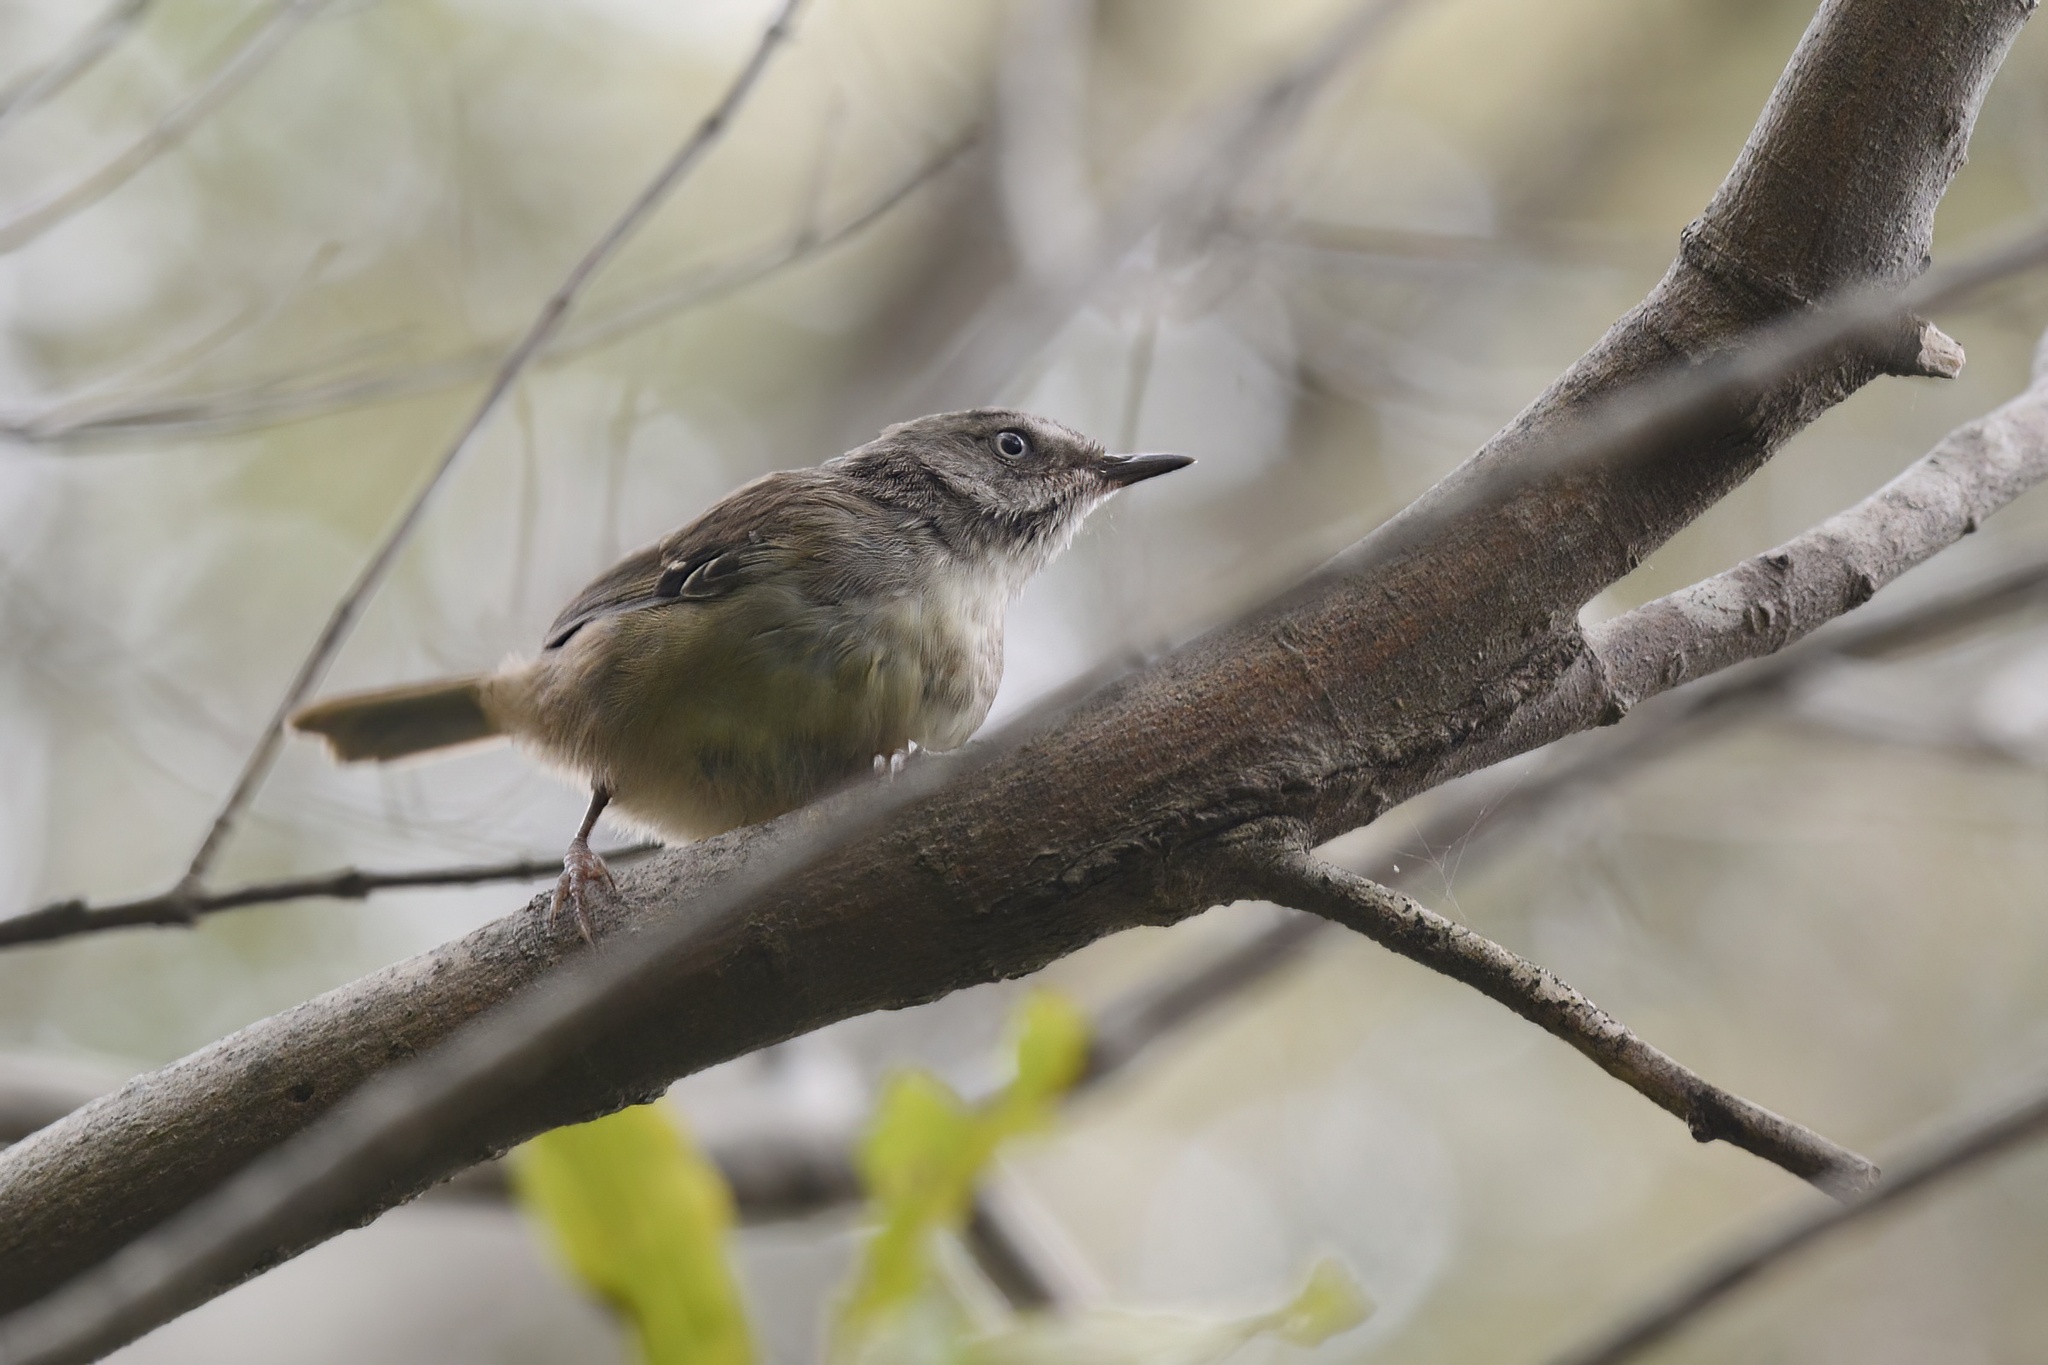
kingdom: Animalia
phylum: Chordata
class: Aves
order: Passeriformes
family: Acanthizidae
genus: Sericornis
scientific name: Sericornis frontalis
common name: White-browed scrubwren
